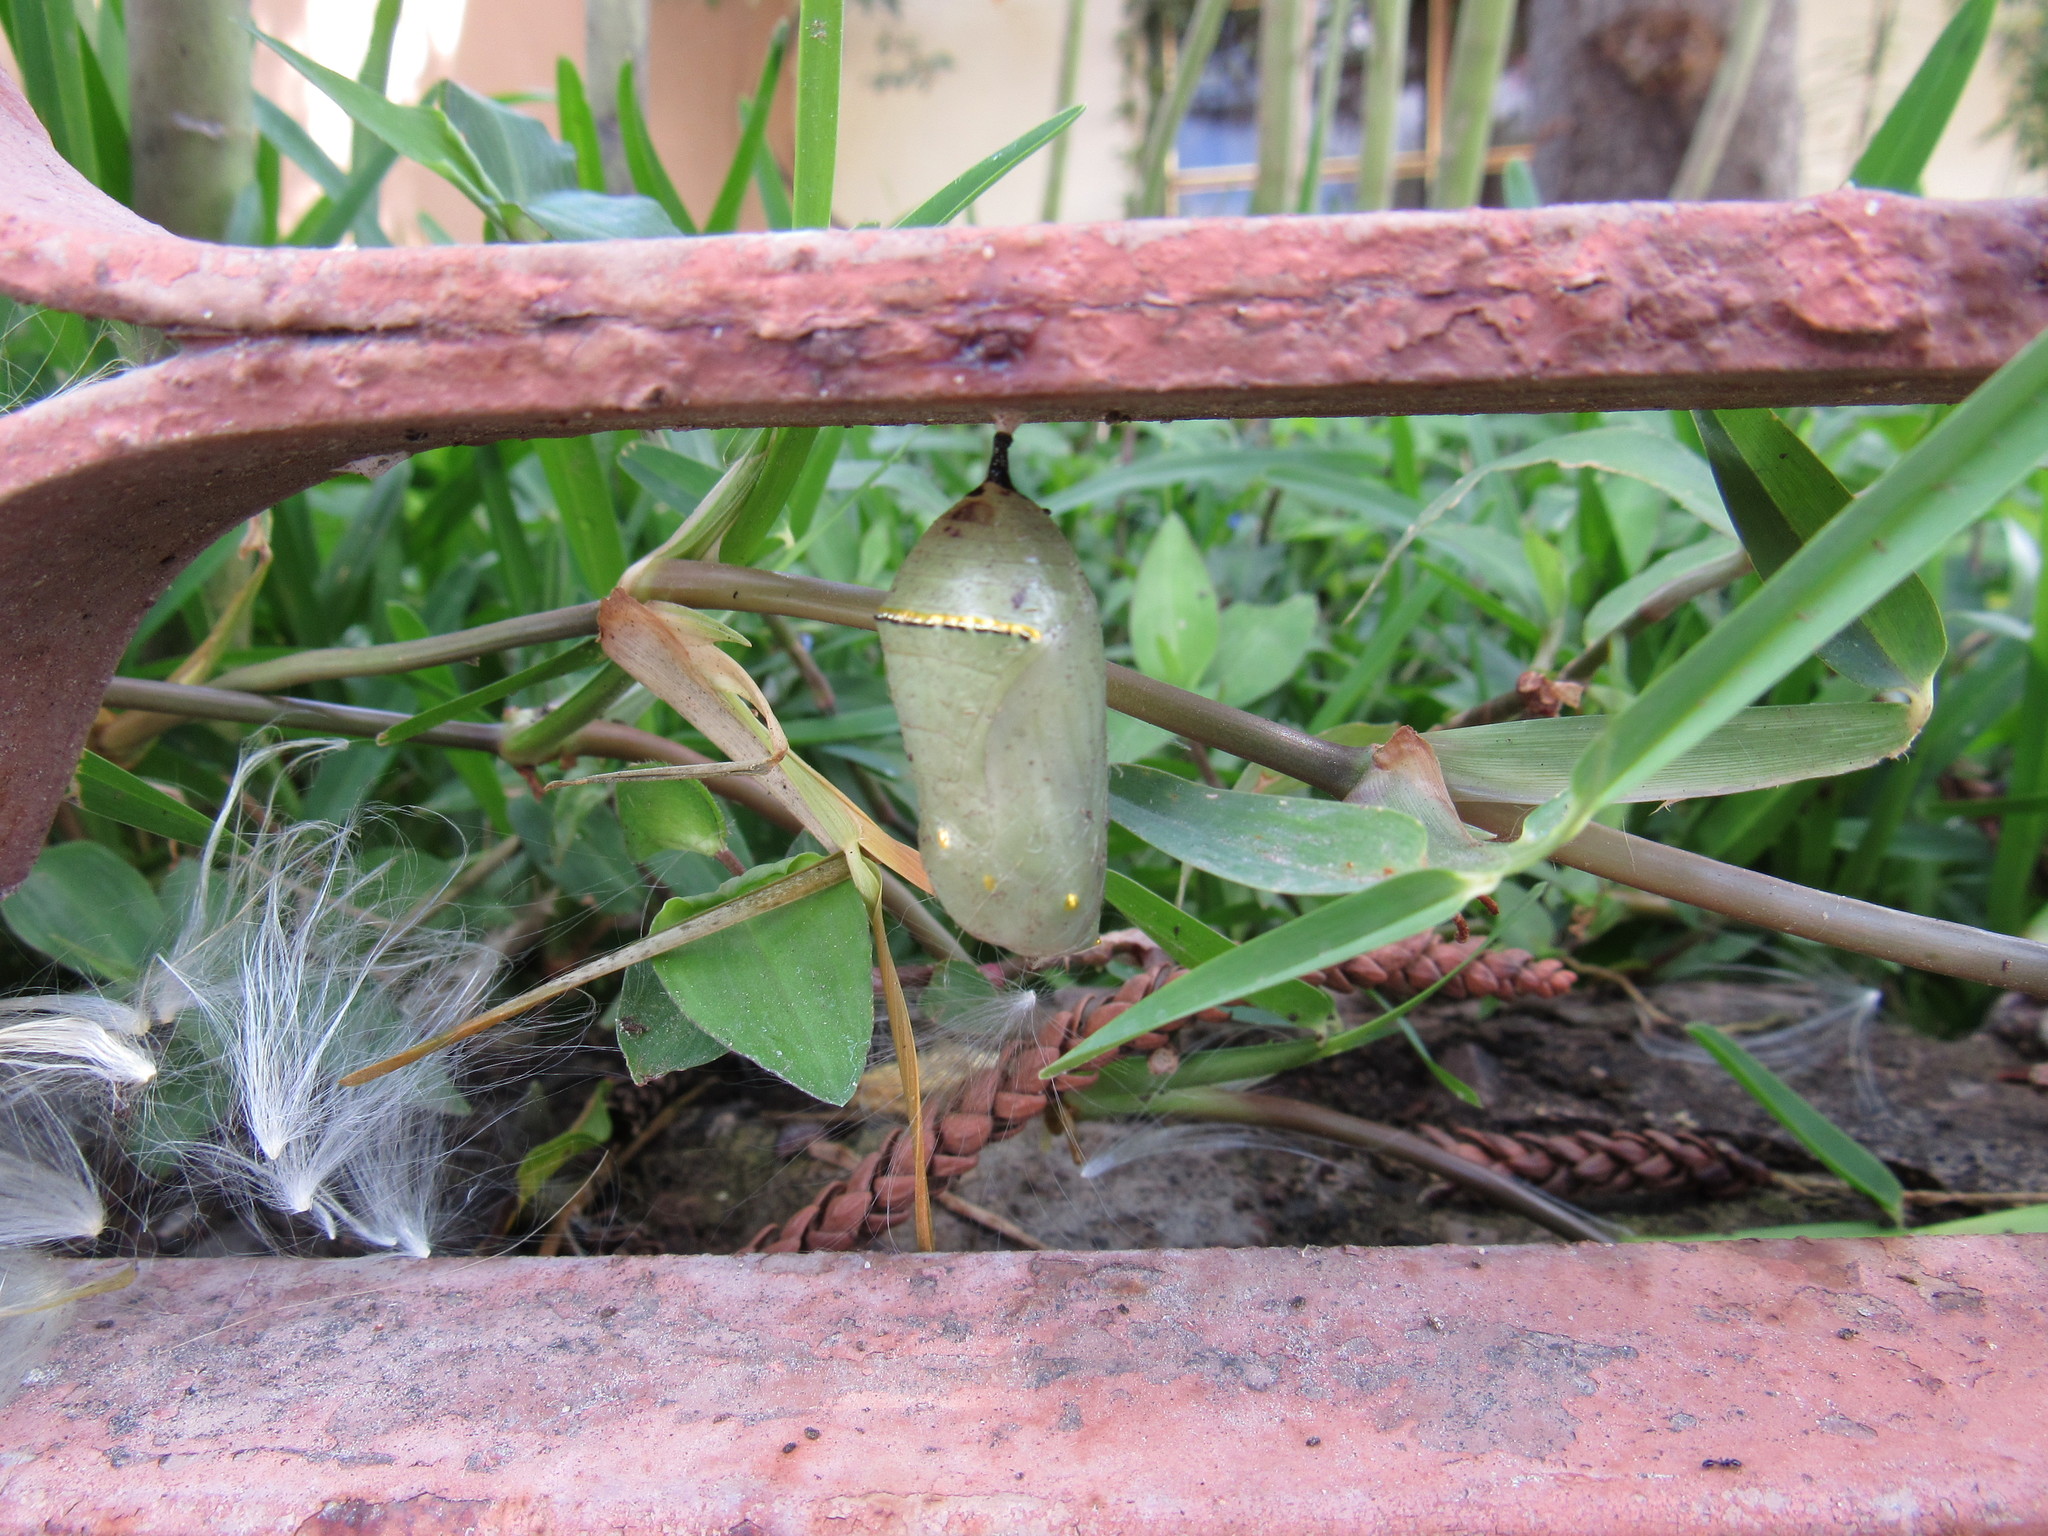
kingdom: Animalia
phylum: Arthropoda
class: Insecta
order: Lepidoptera
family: Nymphalidae
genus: Danaus
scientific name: Danaus plexippus
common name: Monarch
